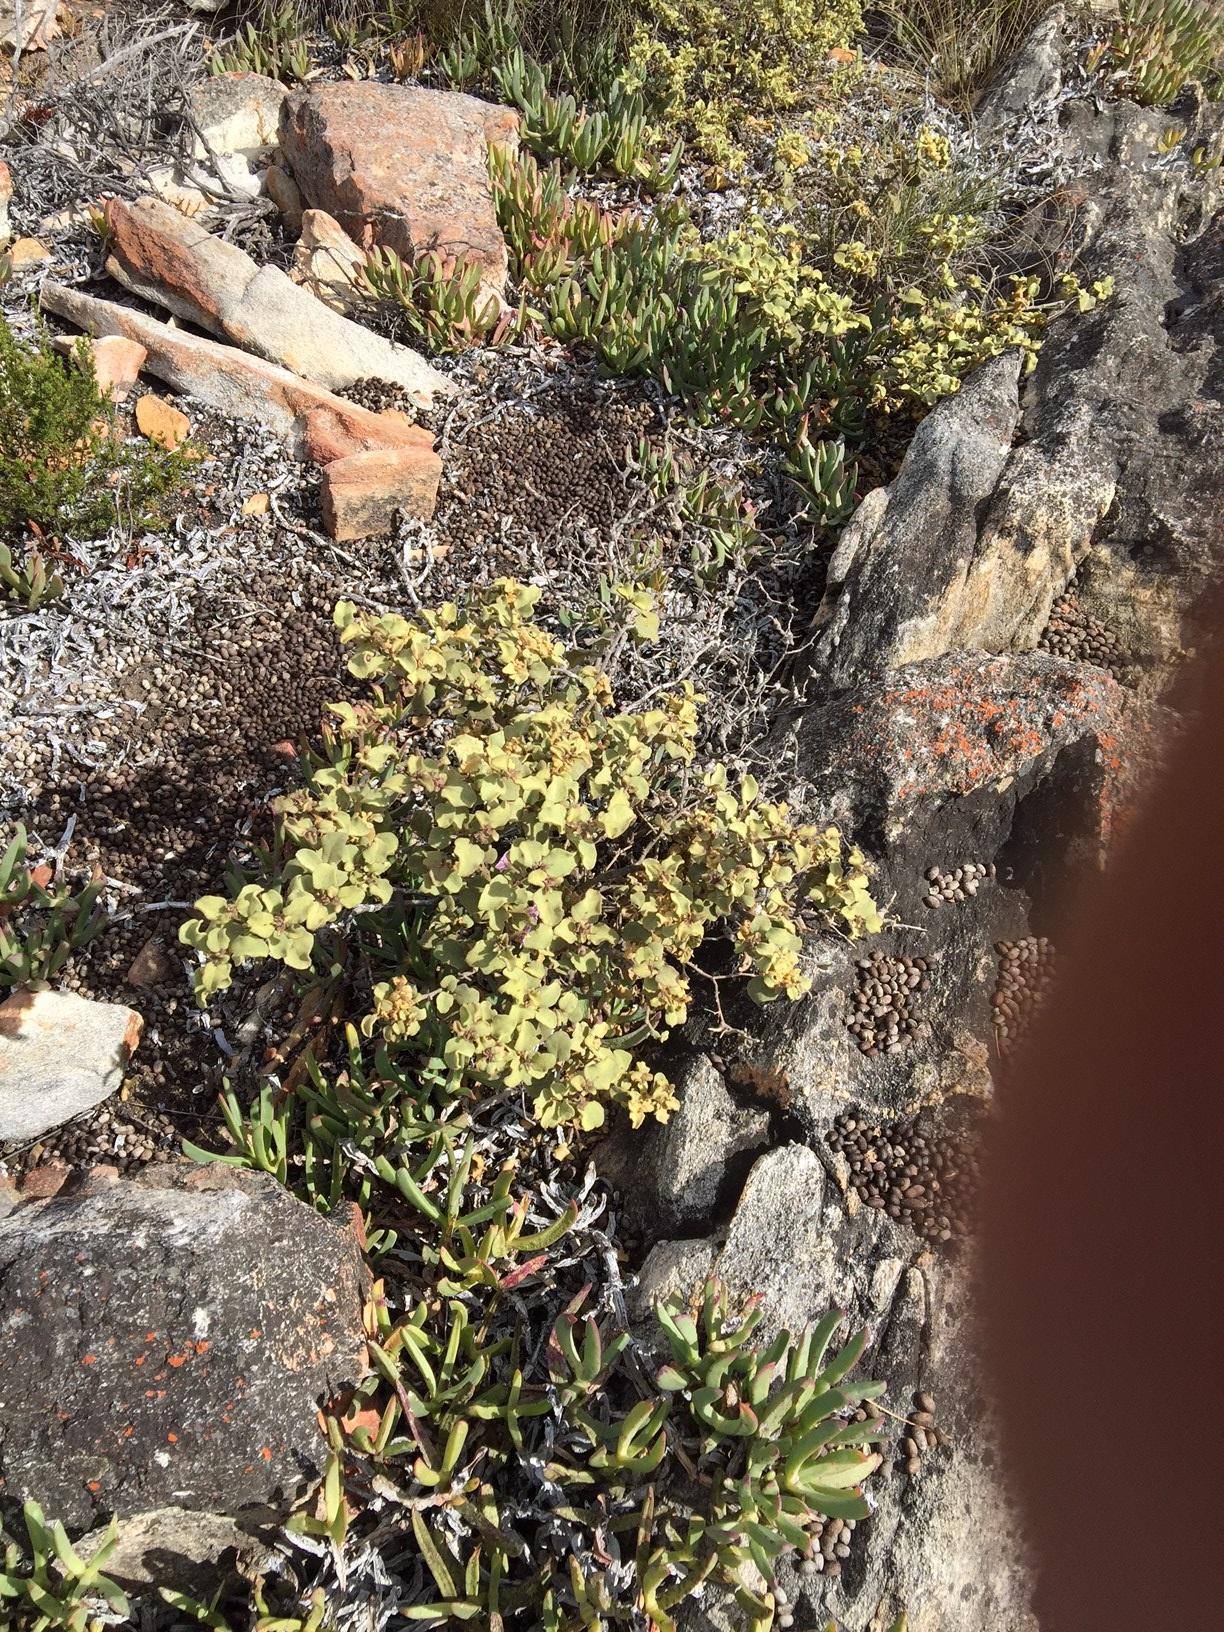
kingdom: Plantae
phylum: Tracheophyta
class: Magnoliopsida
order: Solanales
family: Solanaceae
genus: Solanum
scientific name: Solanum tomentosum
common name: Wild aubergine
